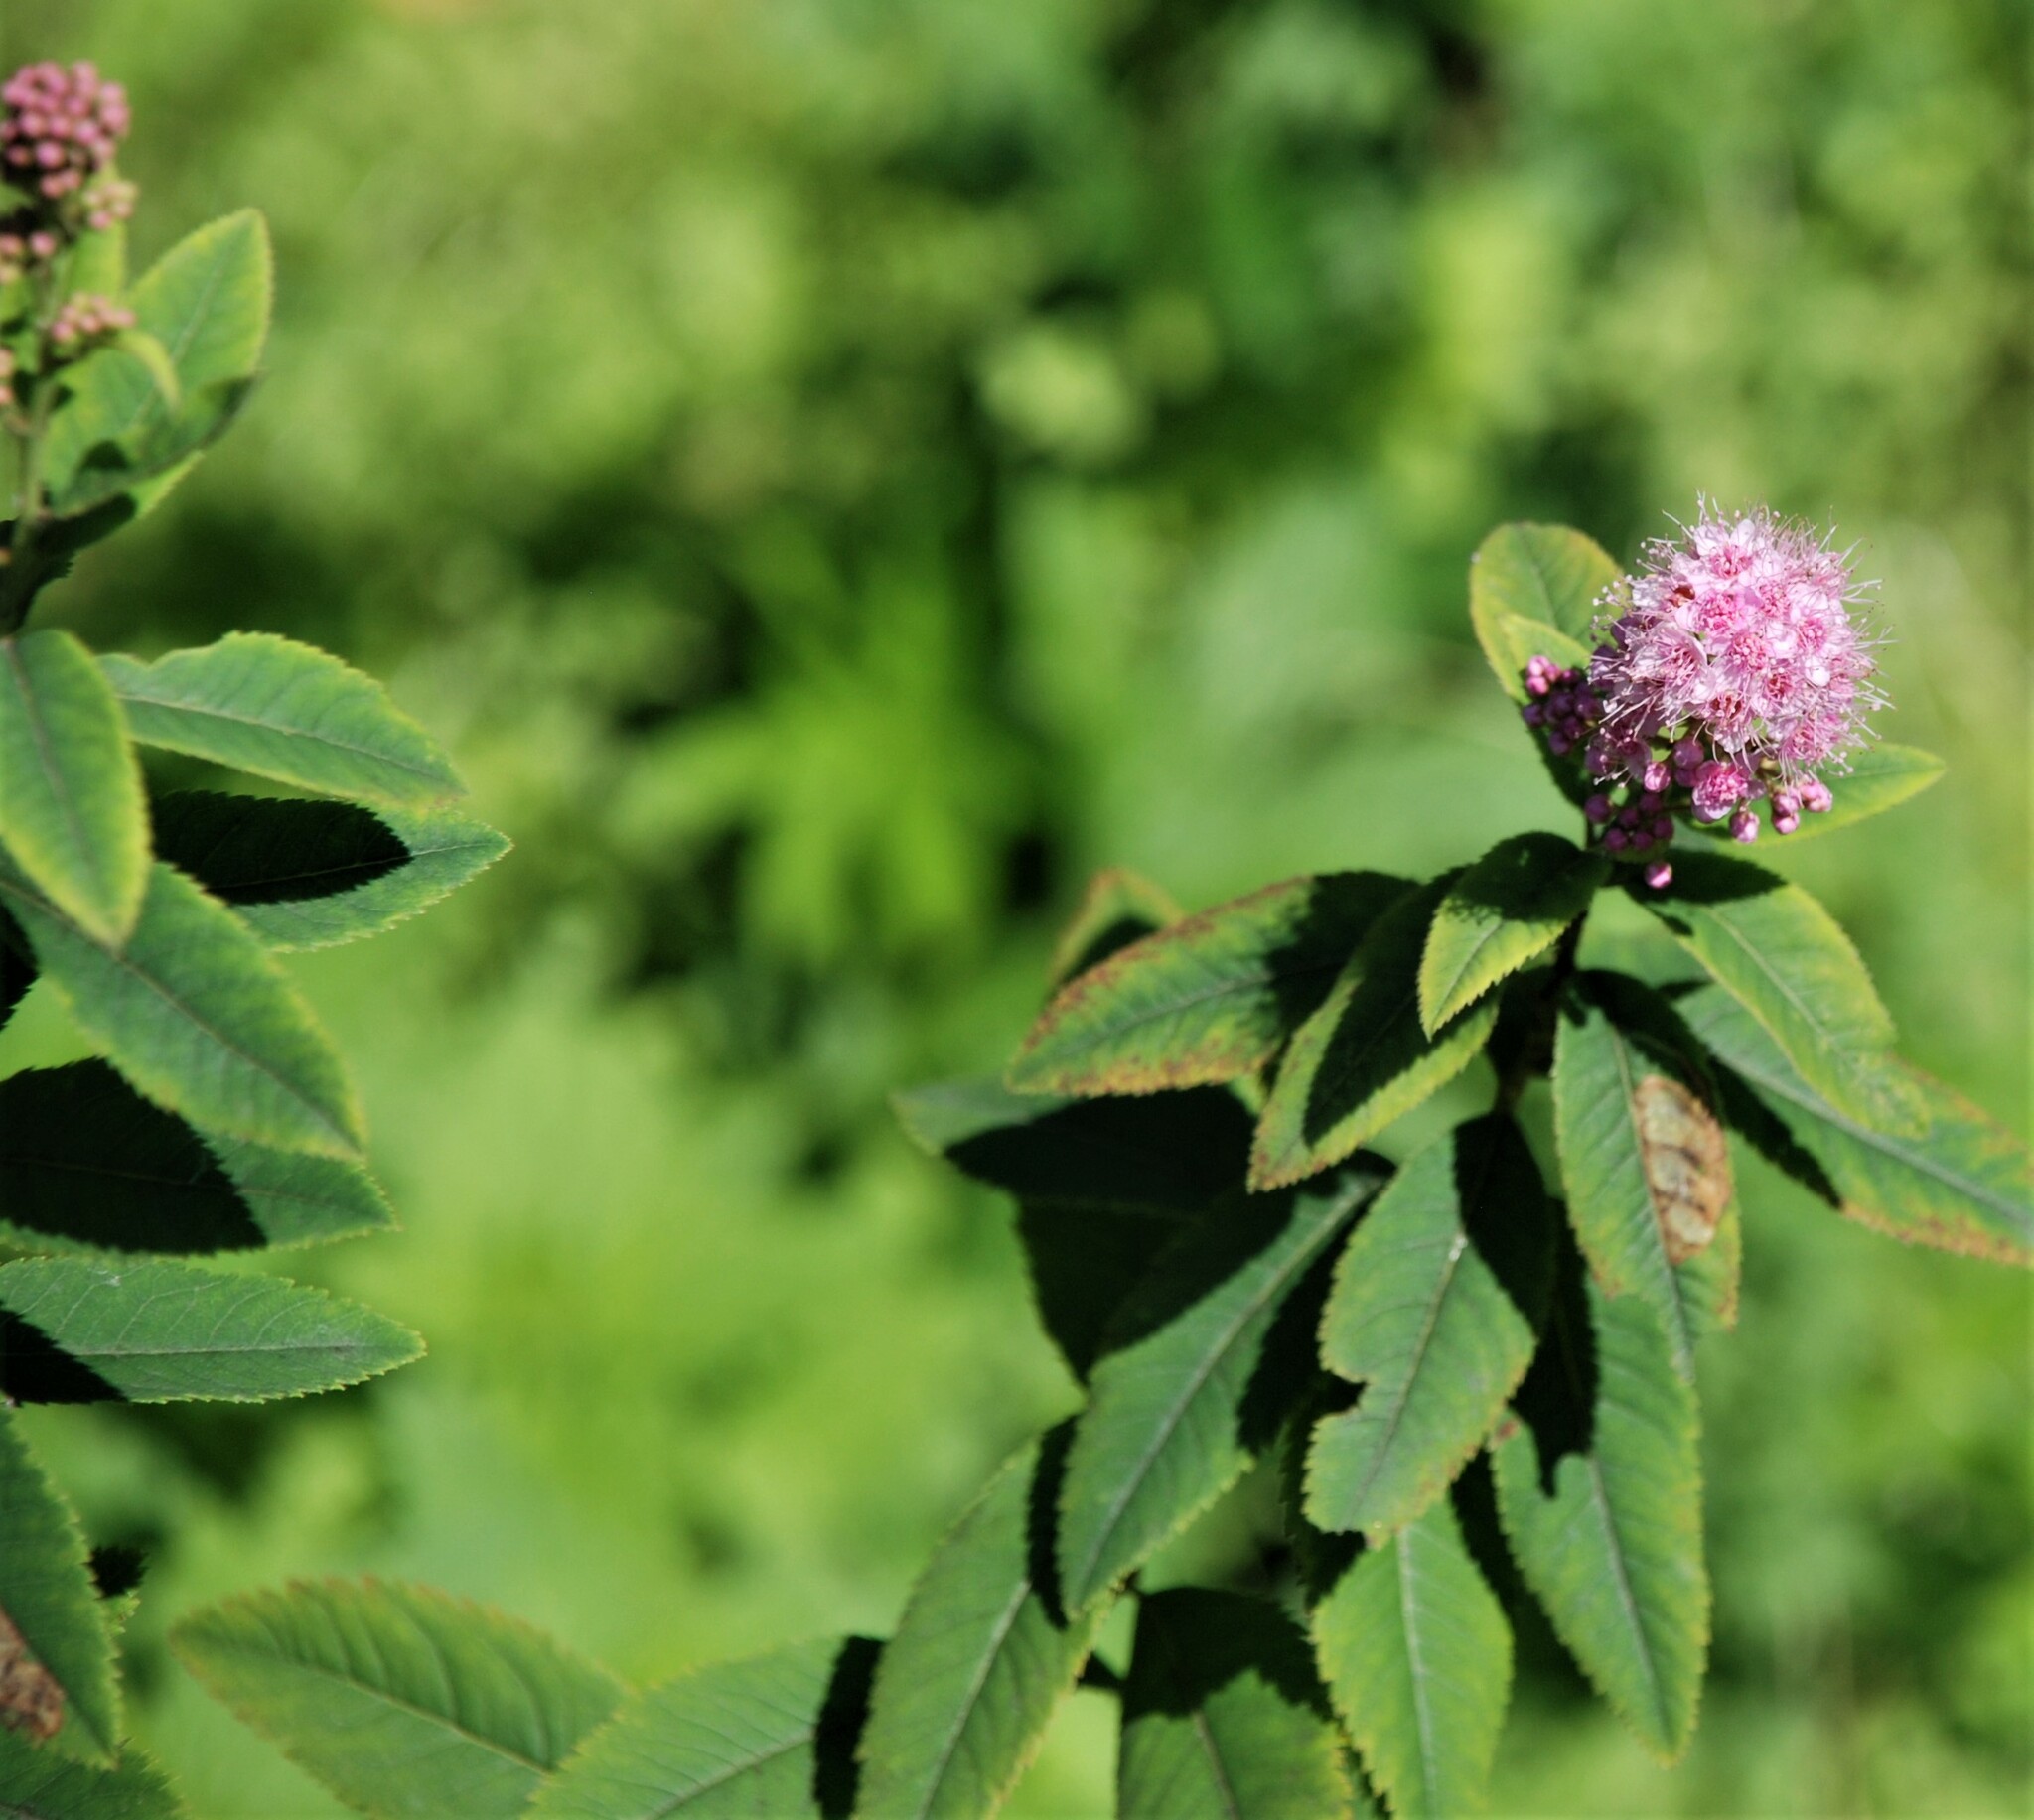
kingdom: Plantae
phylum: Tracheophyta
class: Magnoliopsida
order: Rosales
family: Rosaceae
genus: Spiraea
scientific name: Spiraea salicifolia
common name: Bridewort
